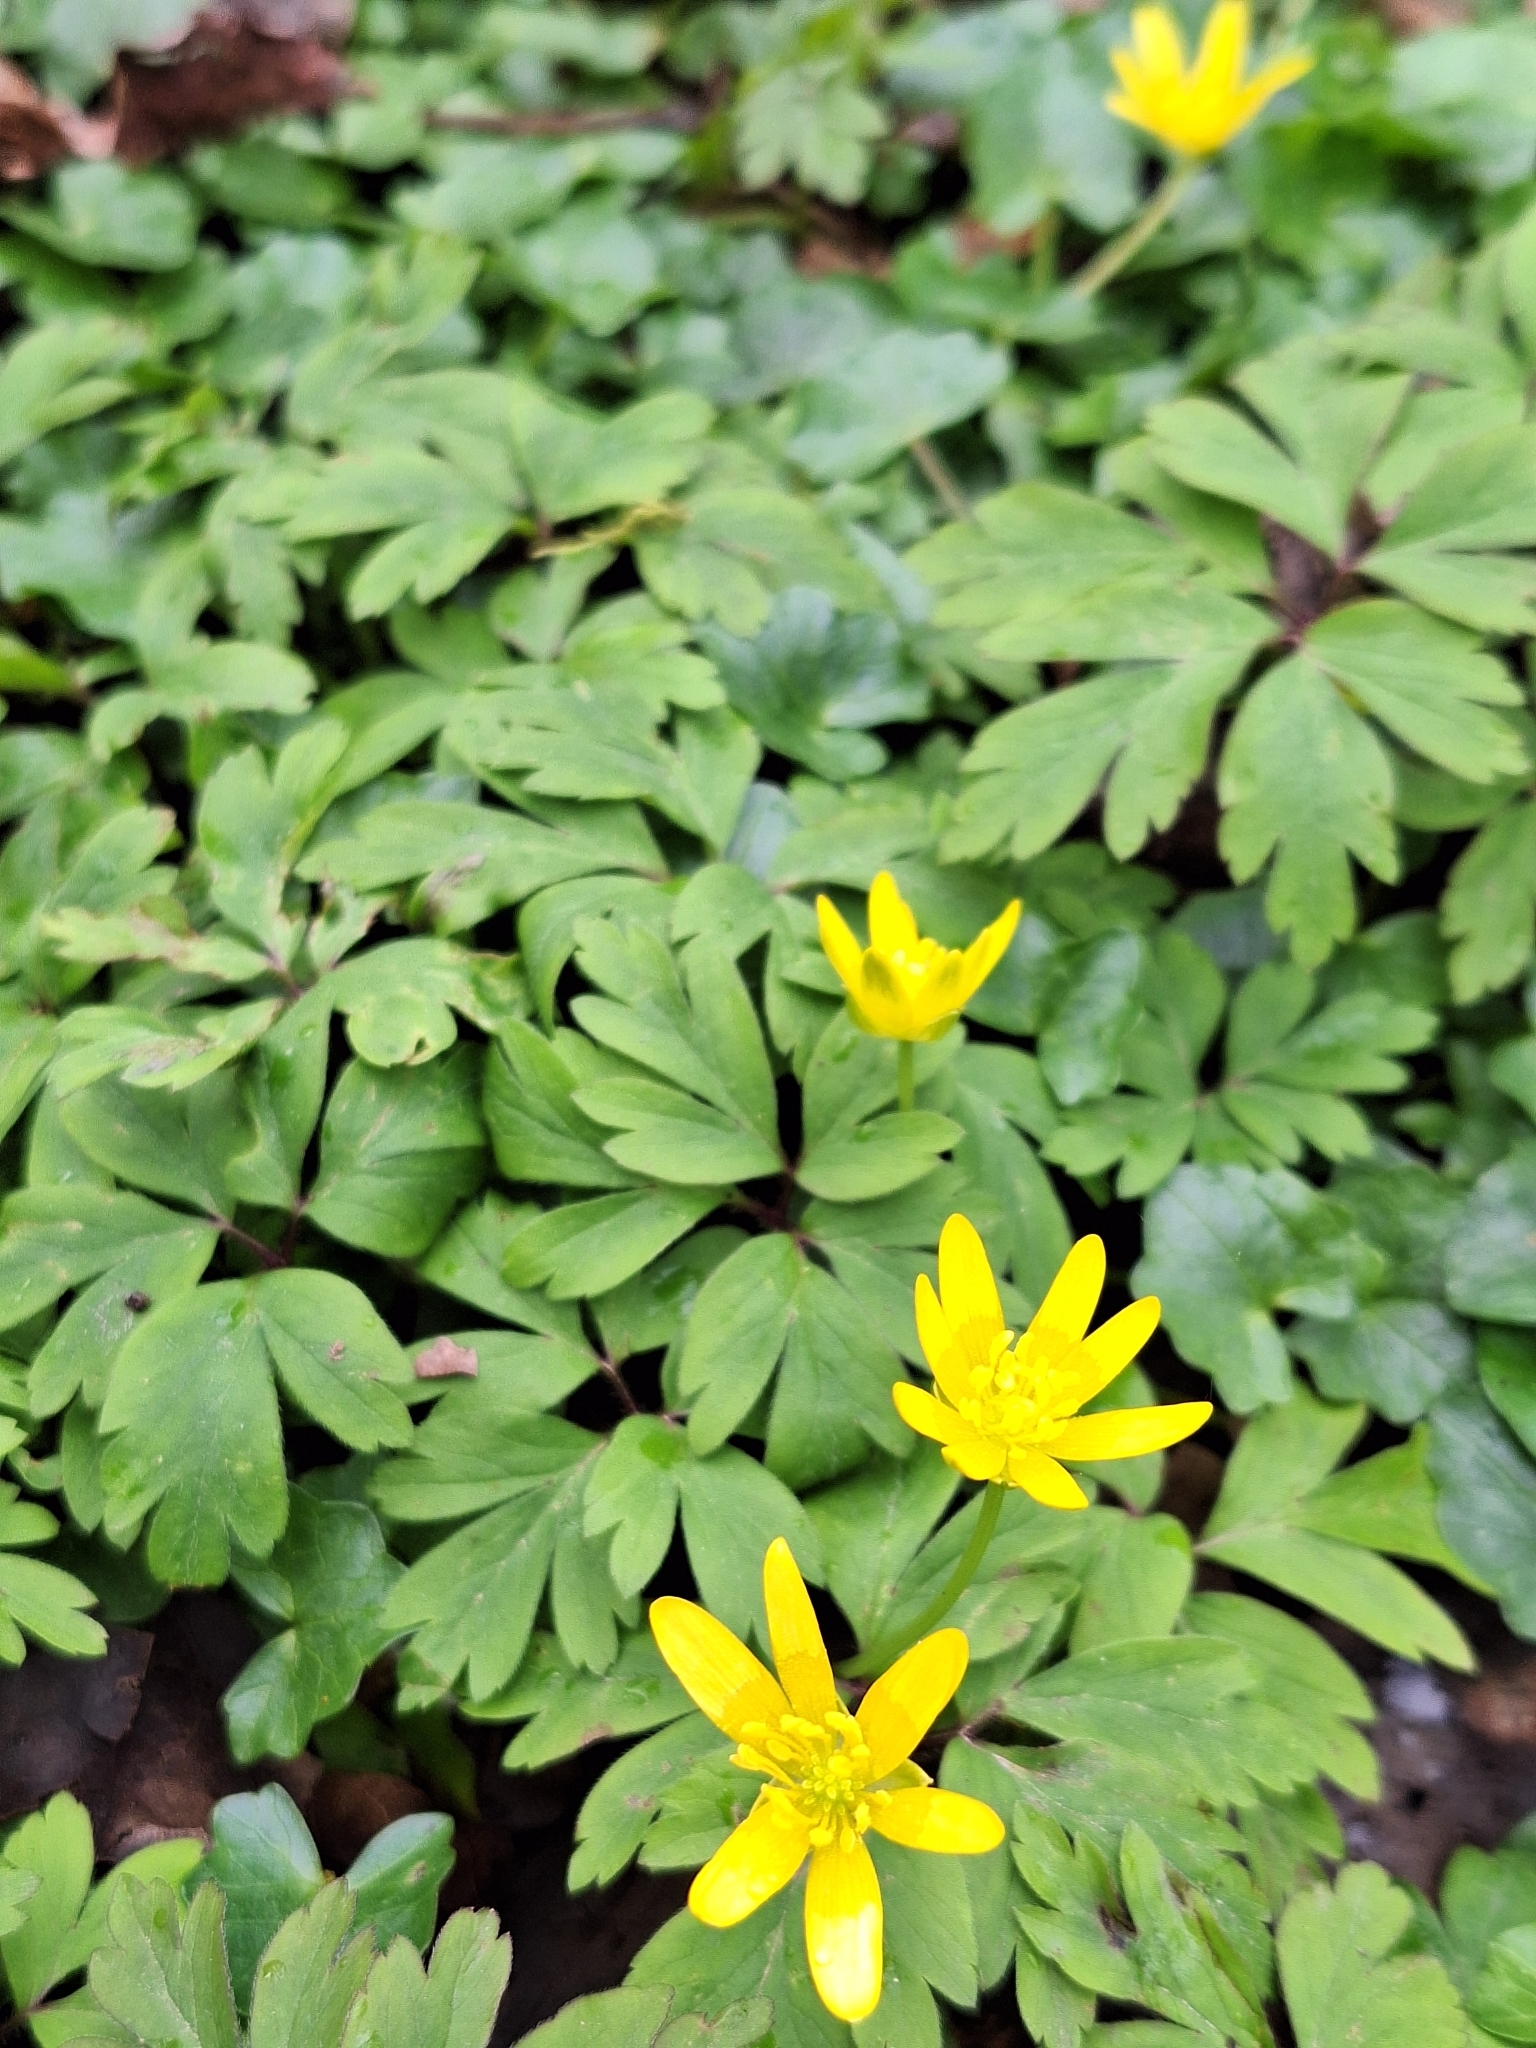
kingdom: Plantae
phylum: Tracheophyta
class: Magnoliopsida
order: Ranunculales
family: Ranunculaceae
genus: Ficaria
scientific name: Ficaria verna
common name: Lesser celandine
